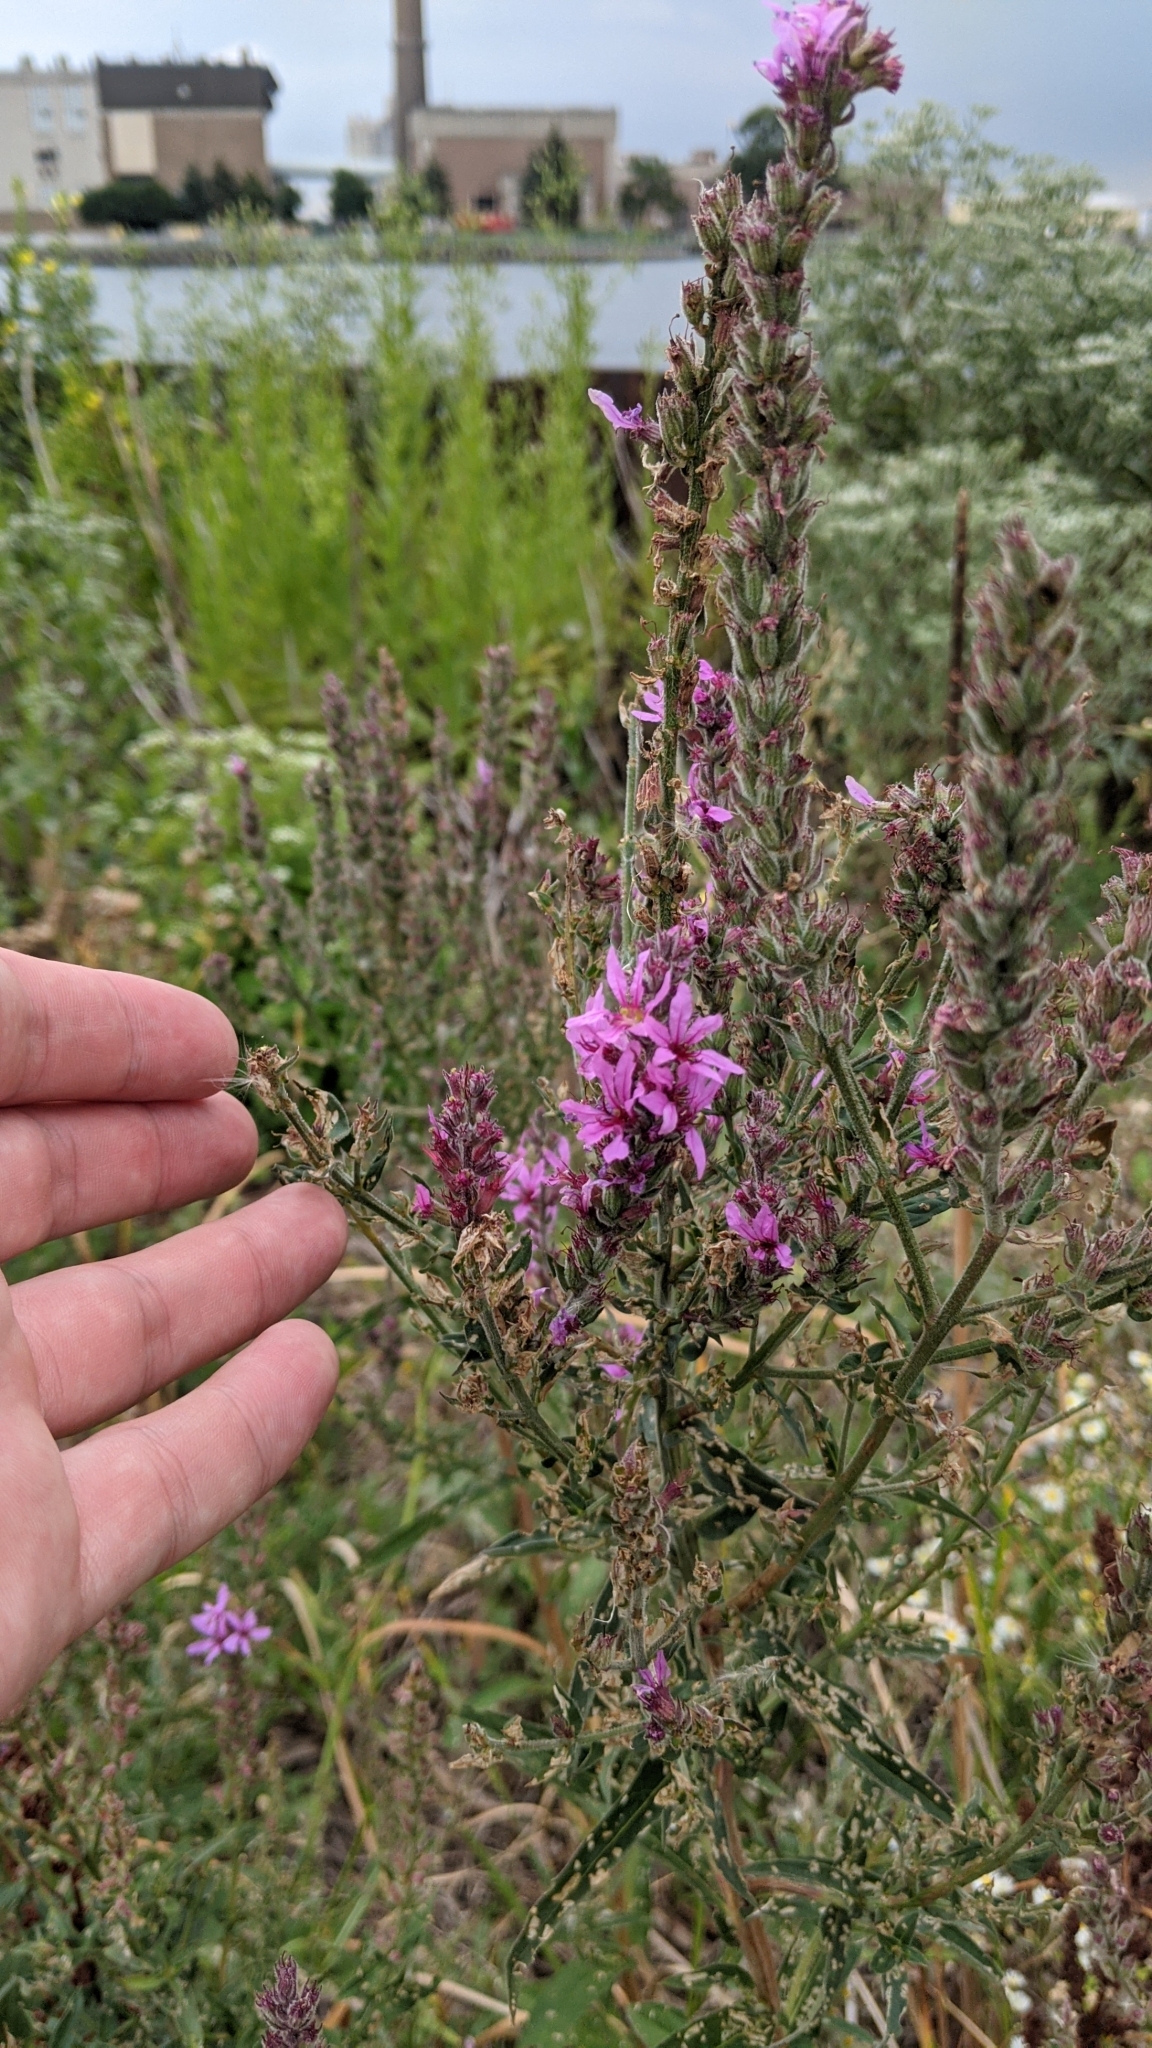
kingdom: Plantae
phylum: Tracheophyta
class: Magnoliopsida
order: Myrtales
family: Lythraceae
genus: Lythrum
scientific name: Lythrum salicaria
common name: Purple loosestrife
